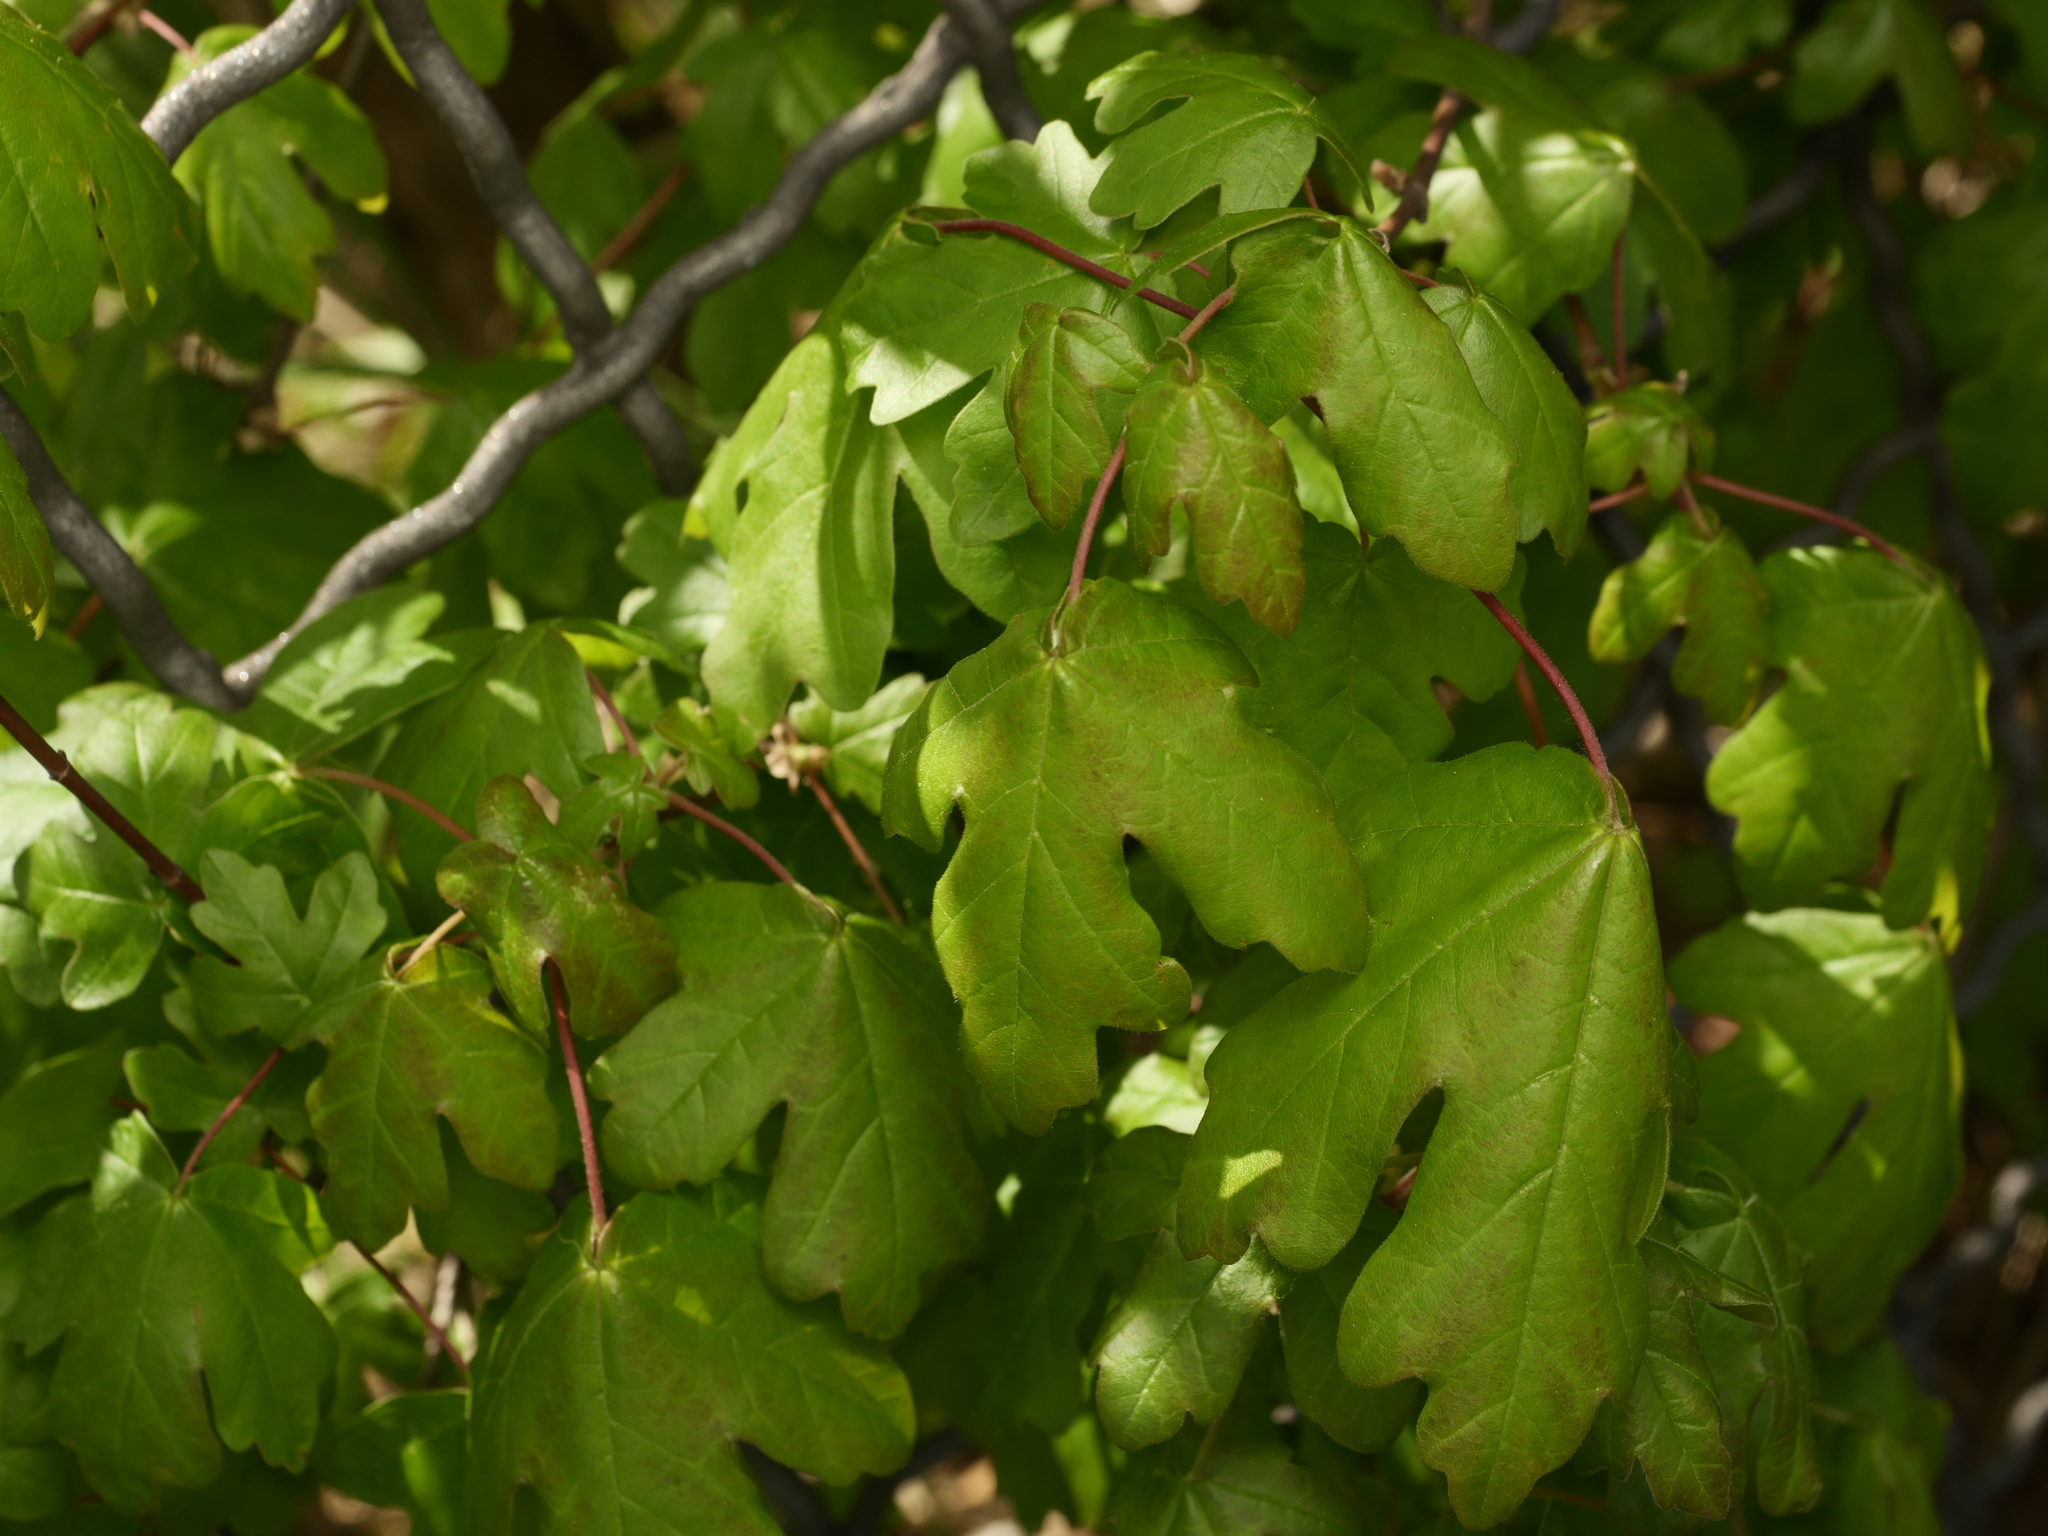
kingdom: Plantae
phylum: Tracheophyta
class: Magnoliopsida
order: Sapindales
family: Sapindaceae
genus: Acer
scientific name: Acer campestre
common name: Field maple
